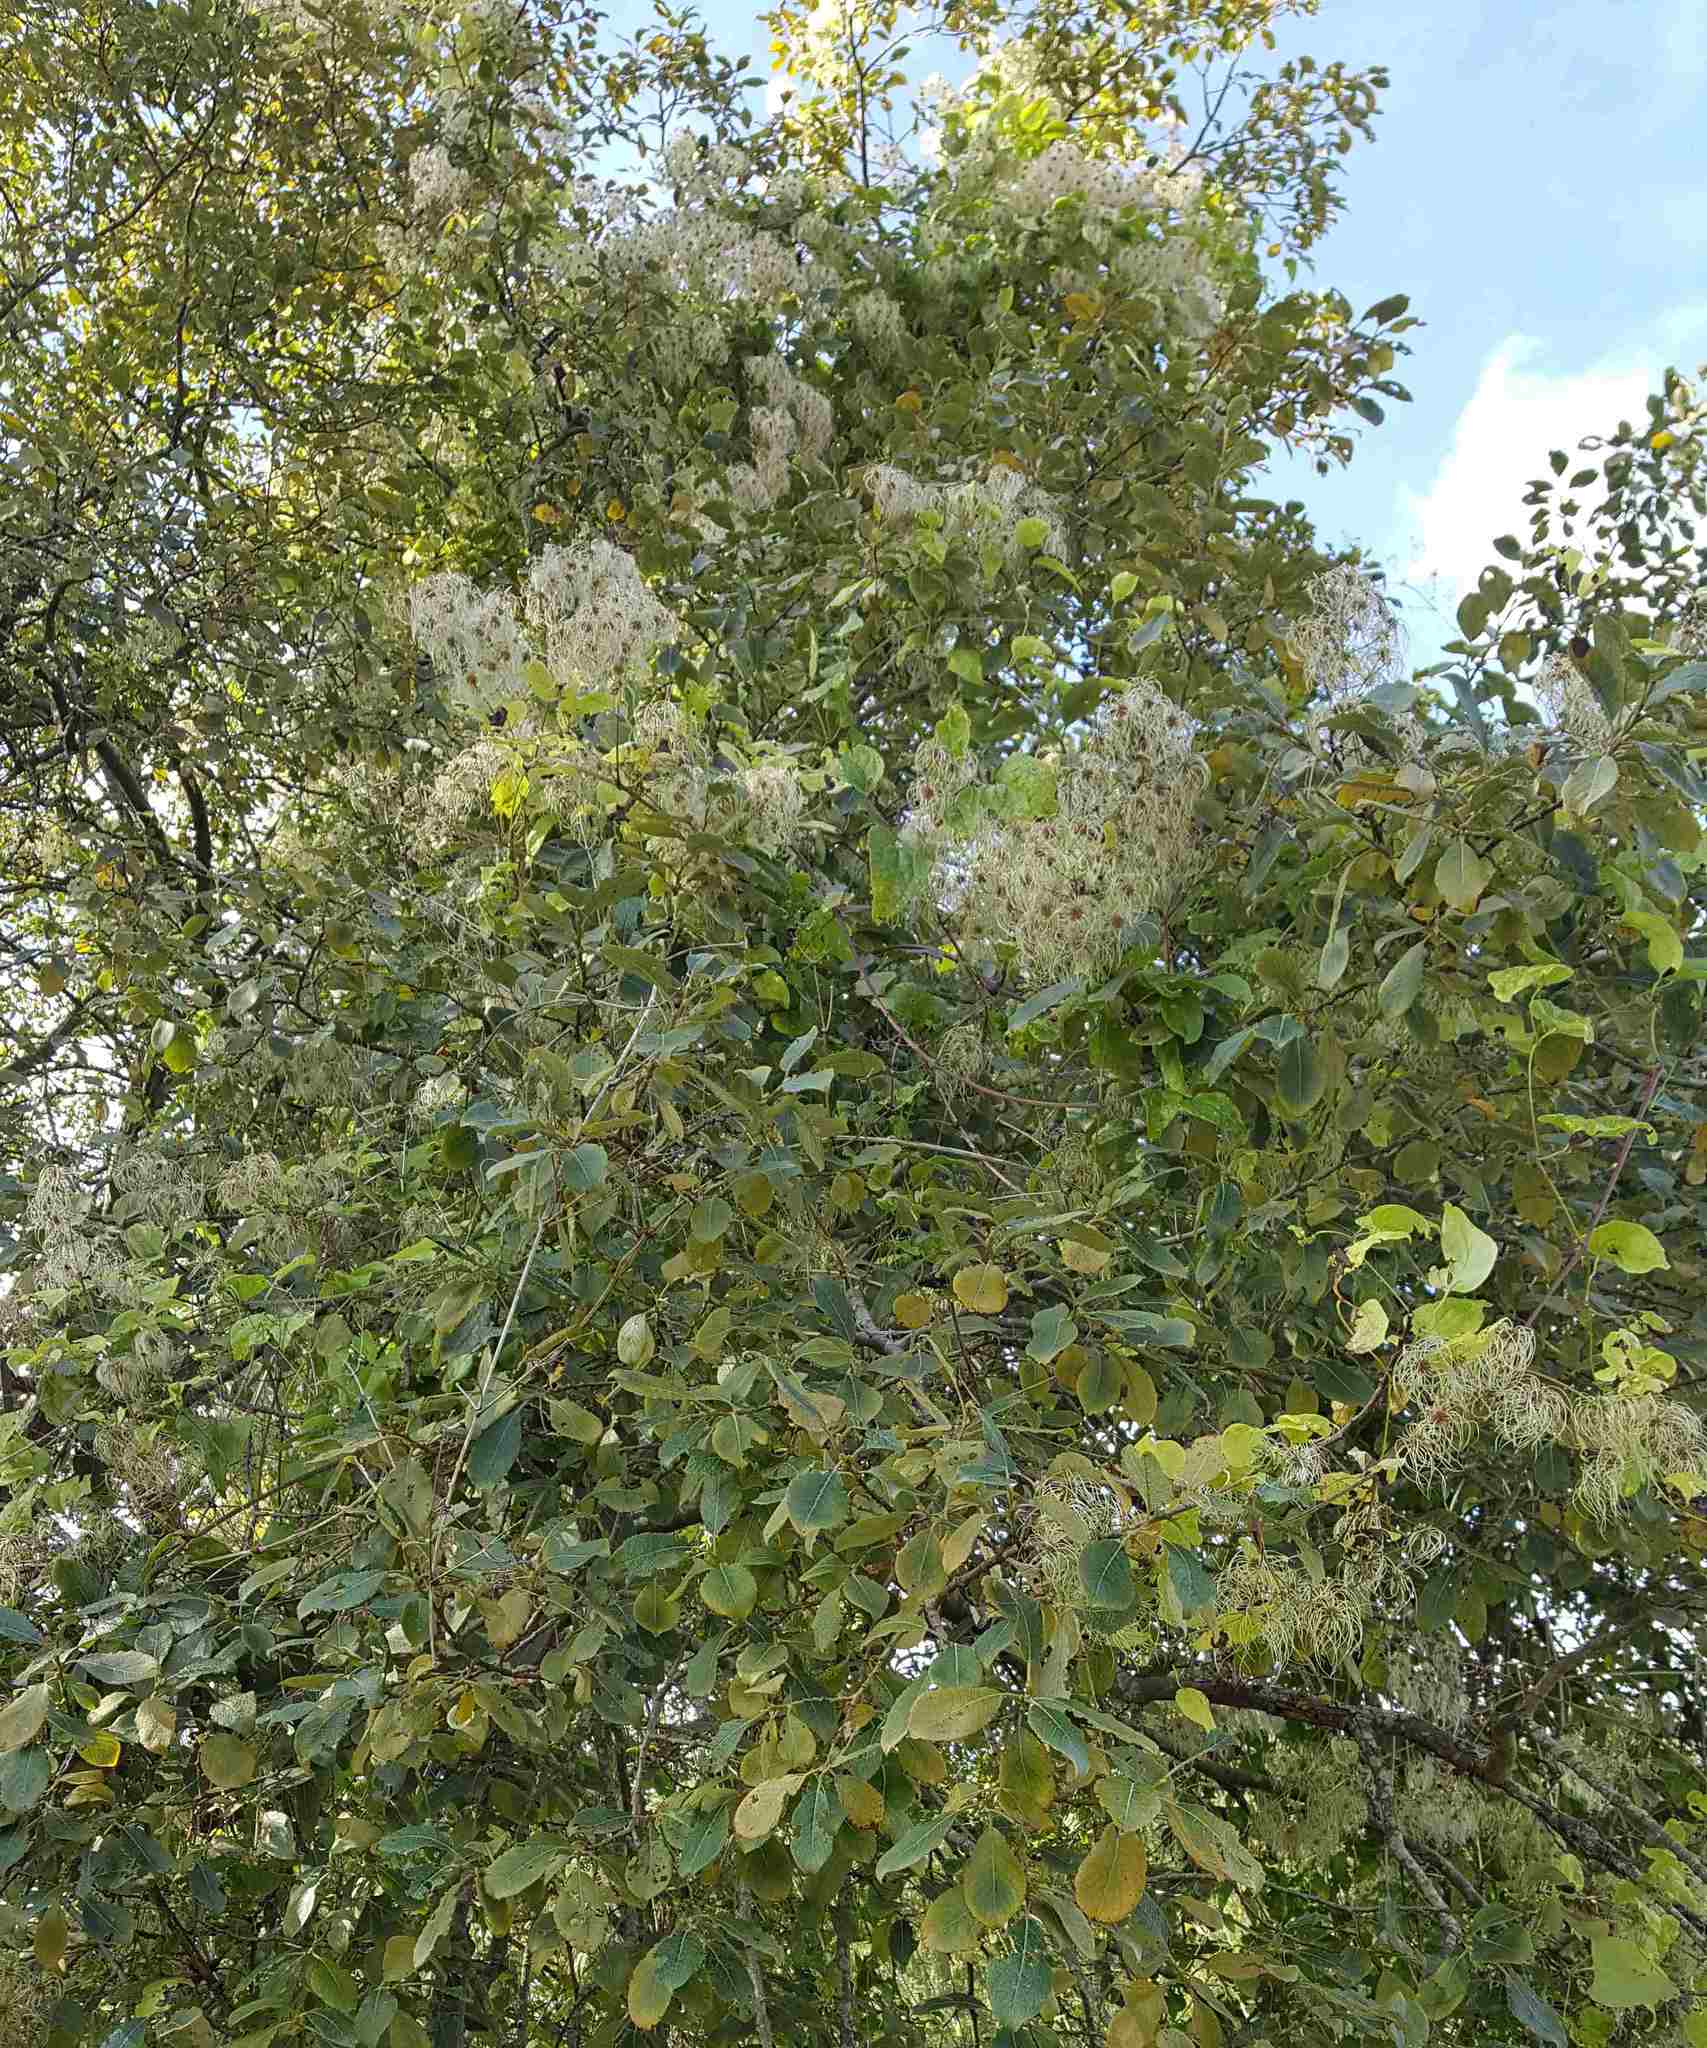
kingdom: Plantae
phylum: Tracheophyta
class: Magnoliopsida
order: Ranunculales
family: Ranunculaceae
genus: Clematis
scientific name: Clematis vitalba
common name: Evergreen clematis
